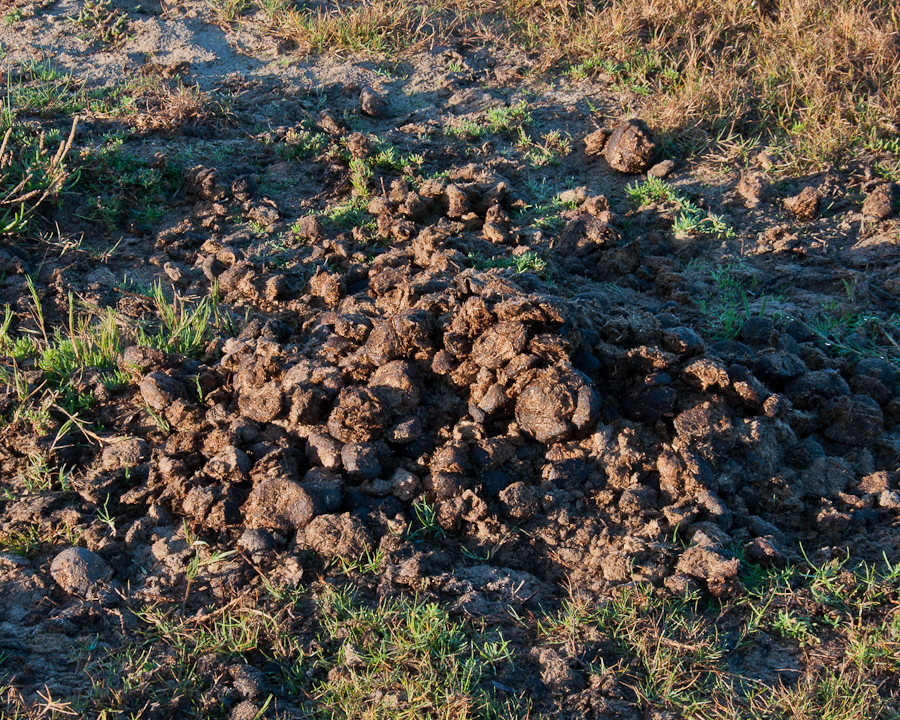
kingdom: Animalia
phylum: Chordata
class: Mammalia
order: Perissodactyla
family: Equidae
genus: Equus
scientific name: Equus caballus
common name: Horse
